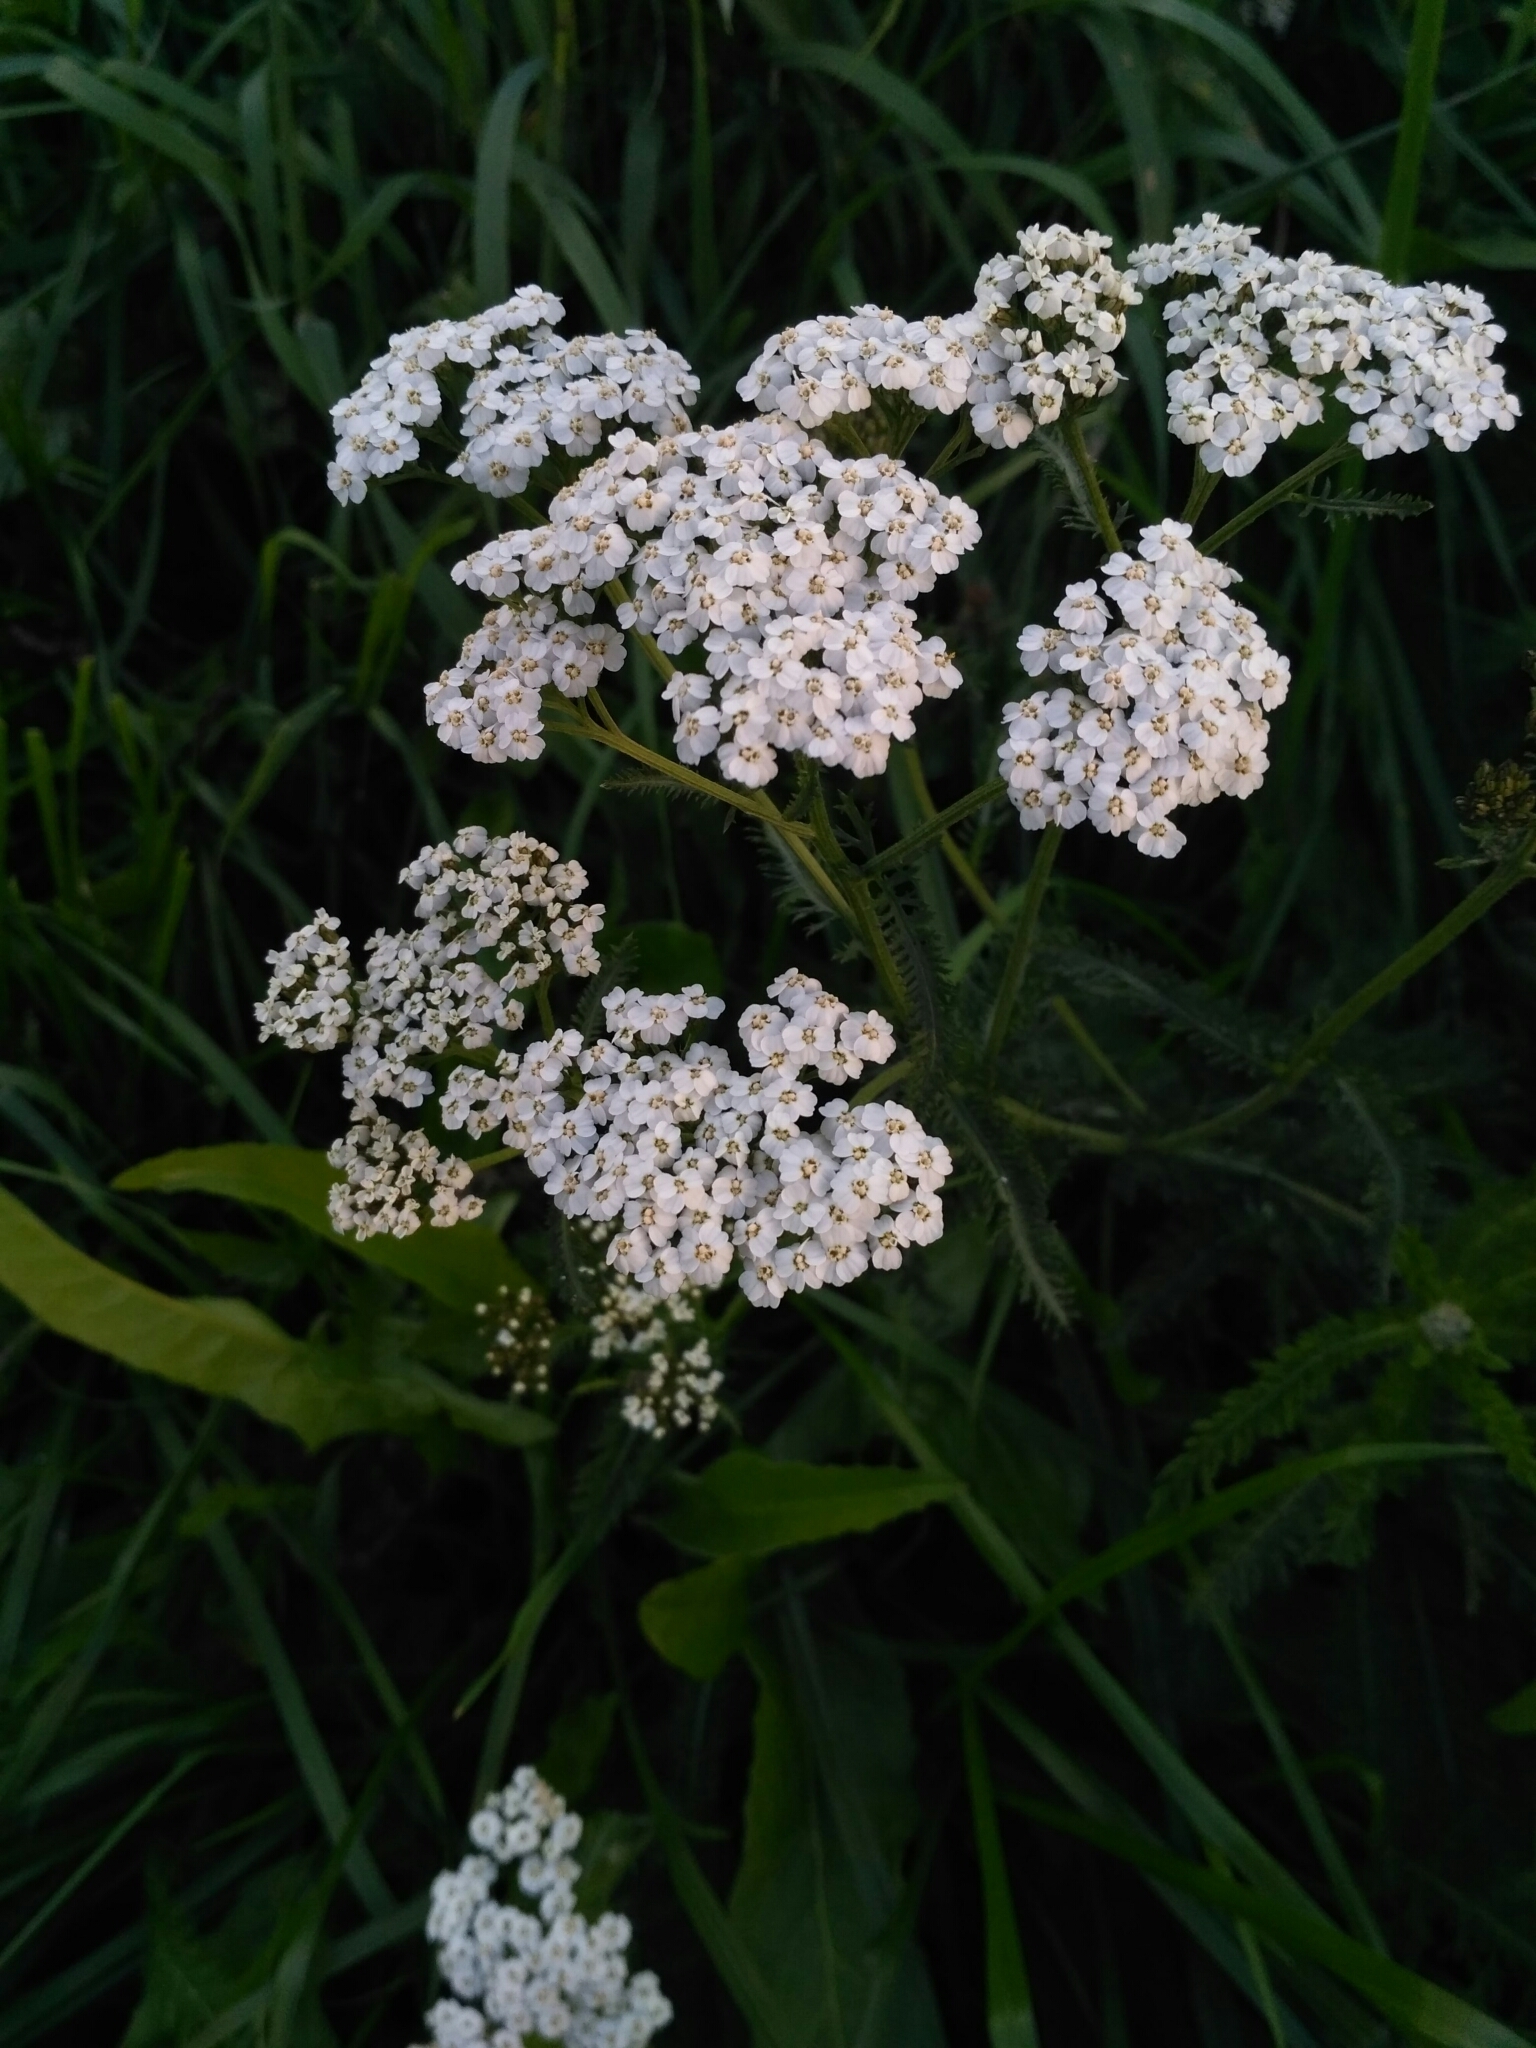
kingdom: Plantae
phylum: Tracheophyta
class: Magnoliopsida
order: Asterales
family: Asteraceae
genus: Achillea
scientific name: Achillea millefolium
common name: Yarrow
